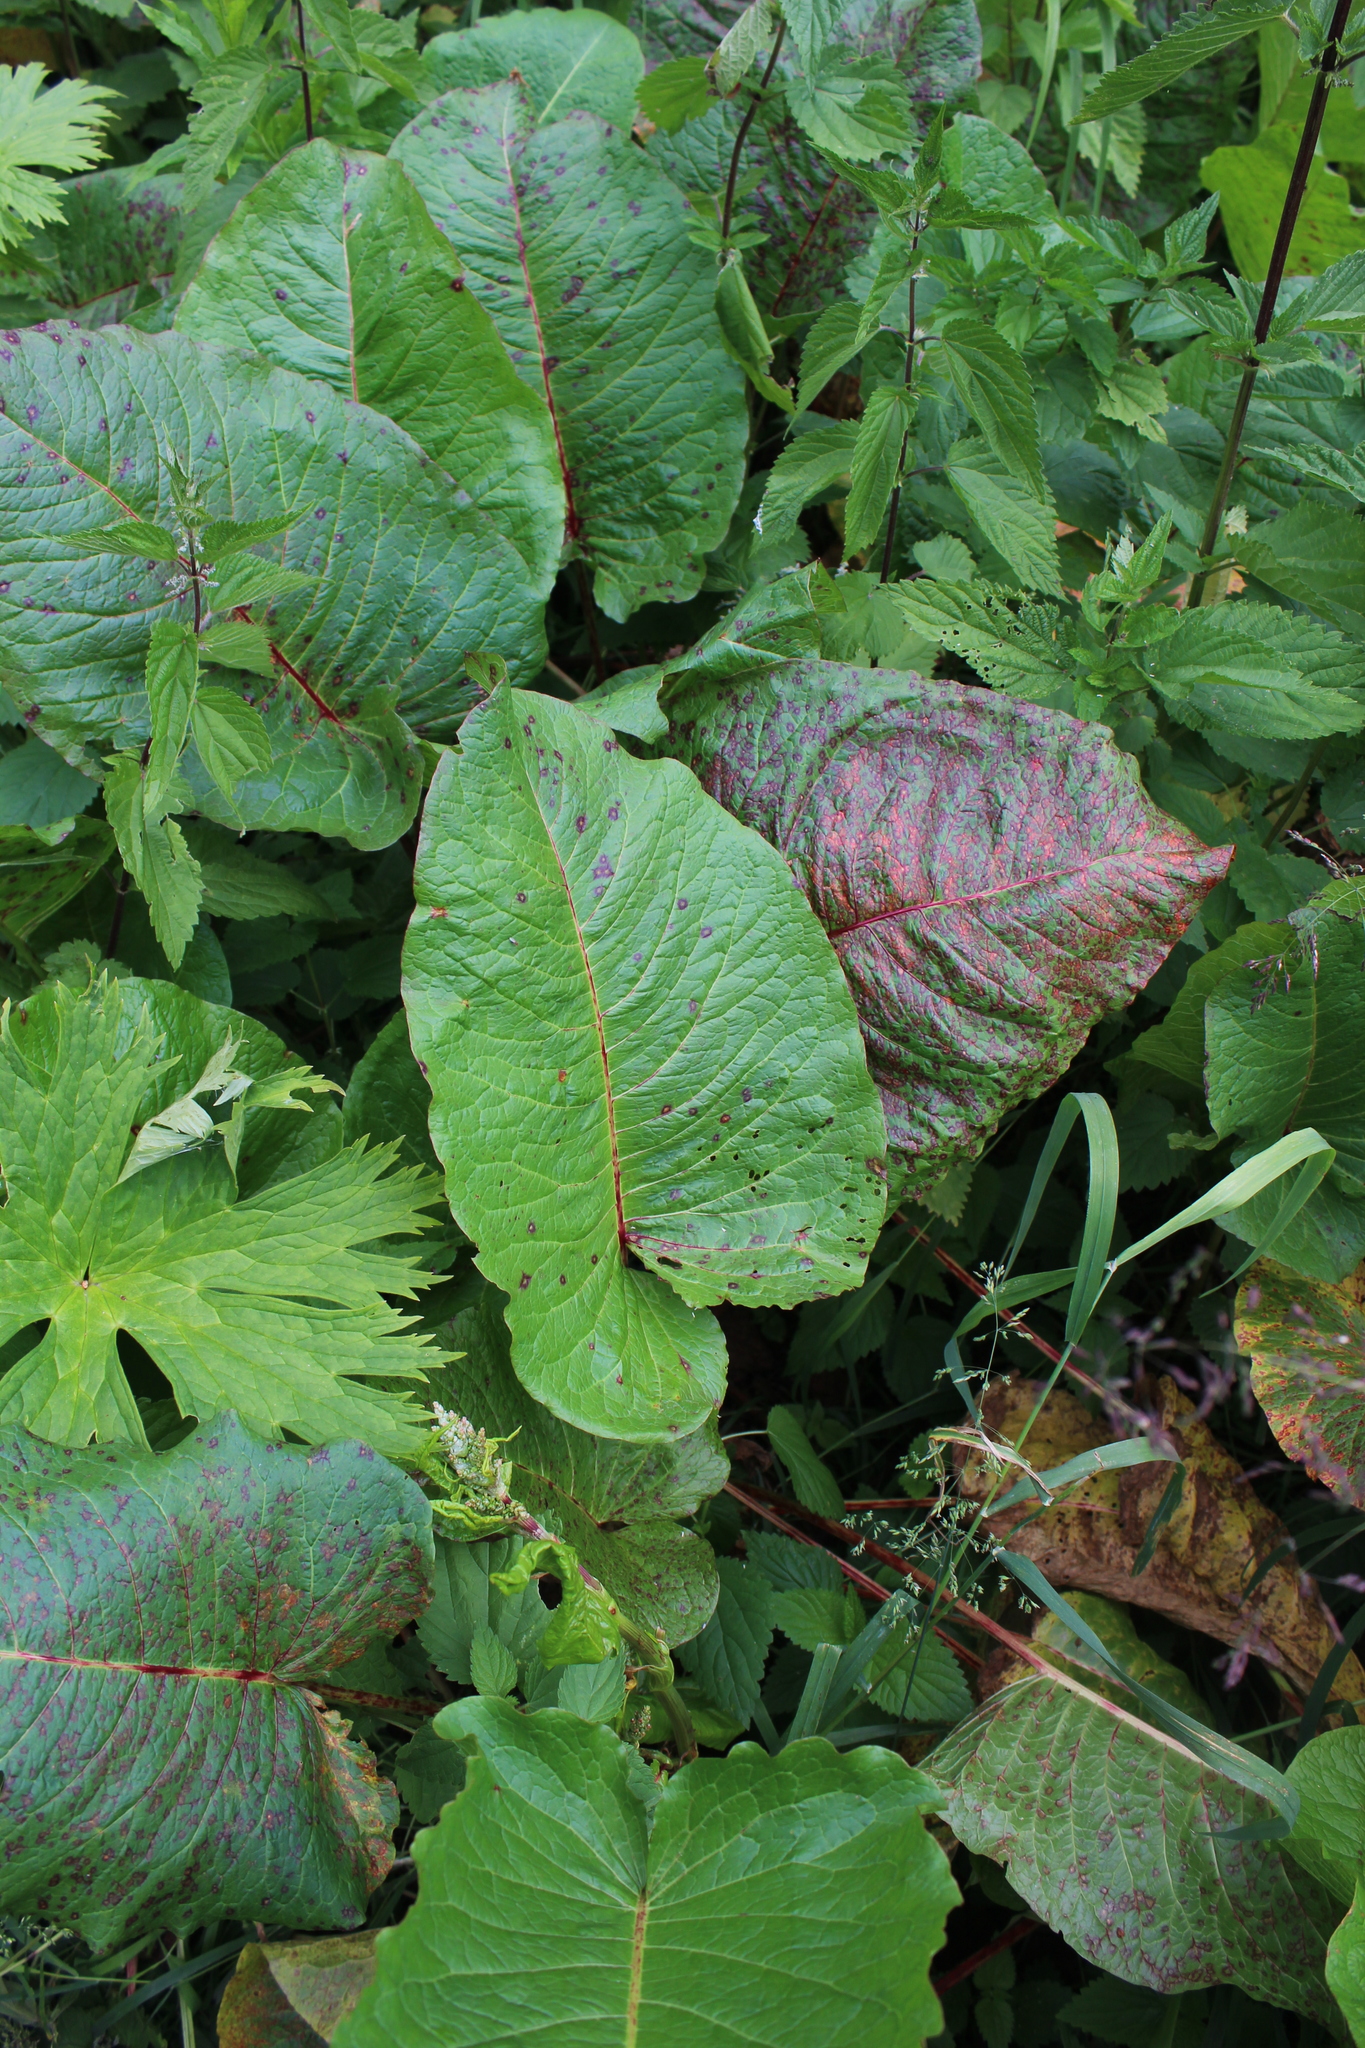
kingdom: Plantae
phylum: Tracheophyta
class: Magnoliopsida
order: Caryophyllales
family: Polygonaceae
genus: Rumex
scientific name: Rumex alpinus
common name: Alpine dock
